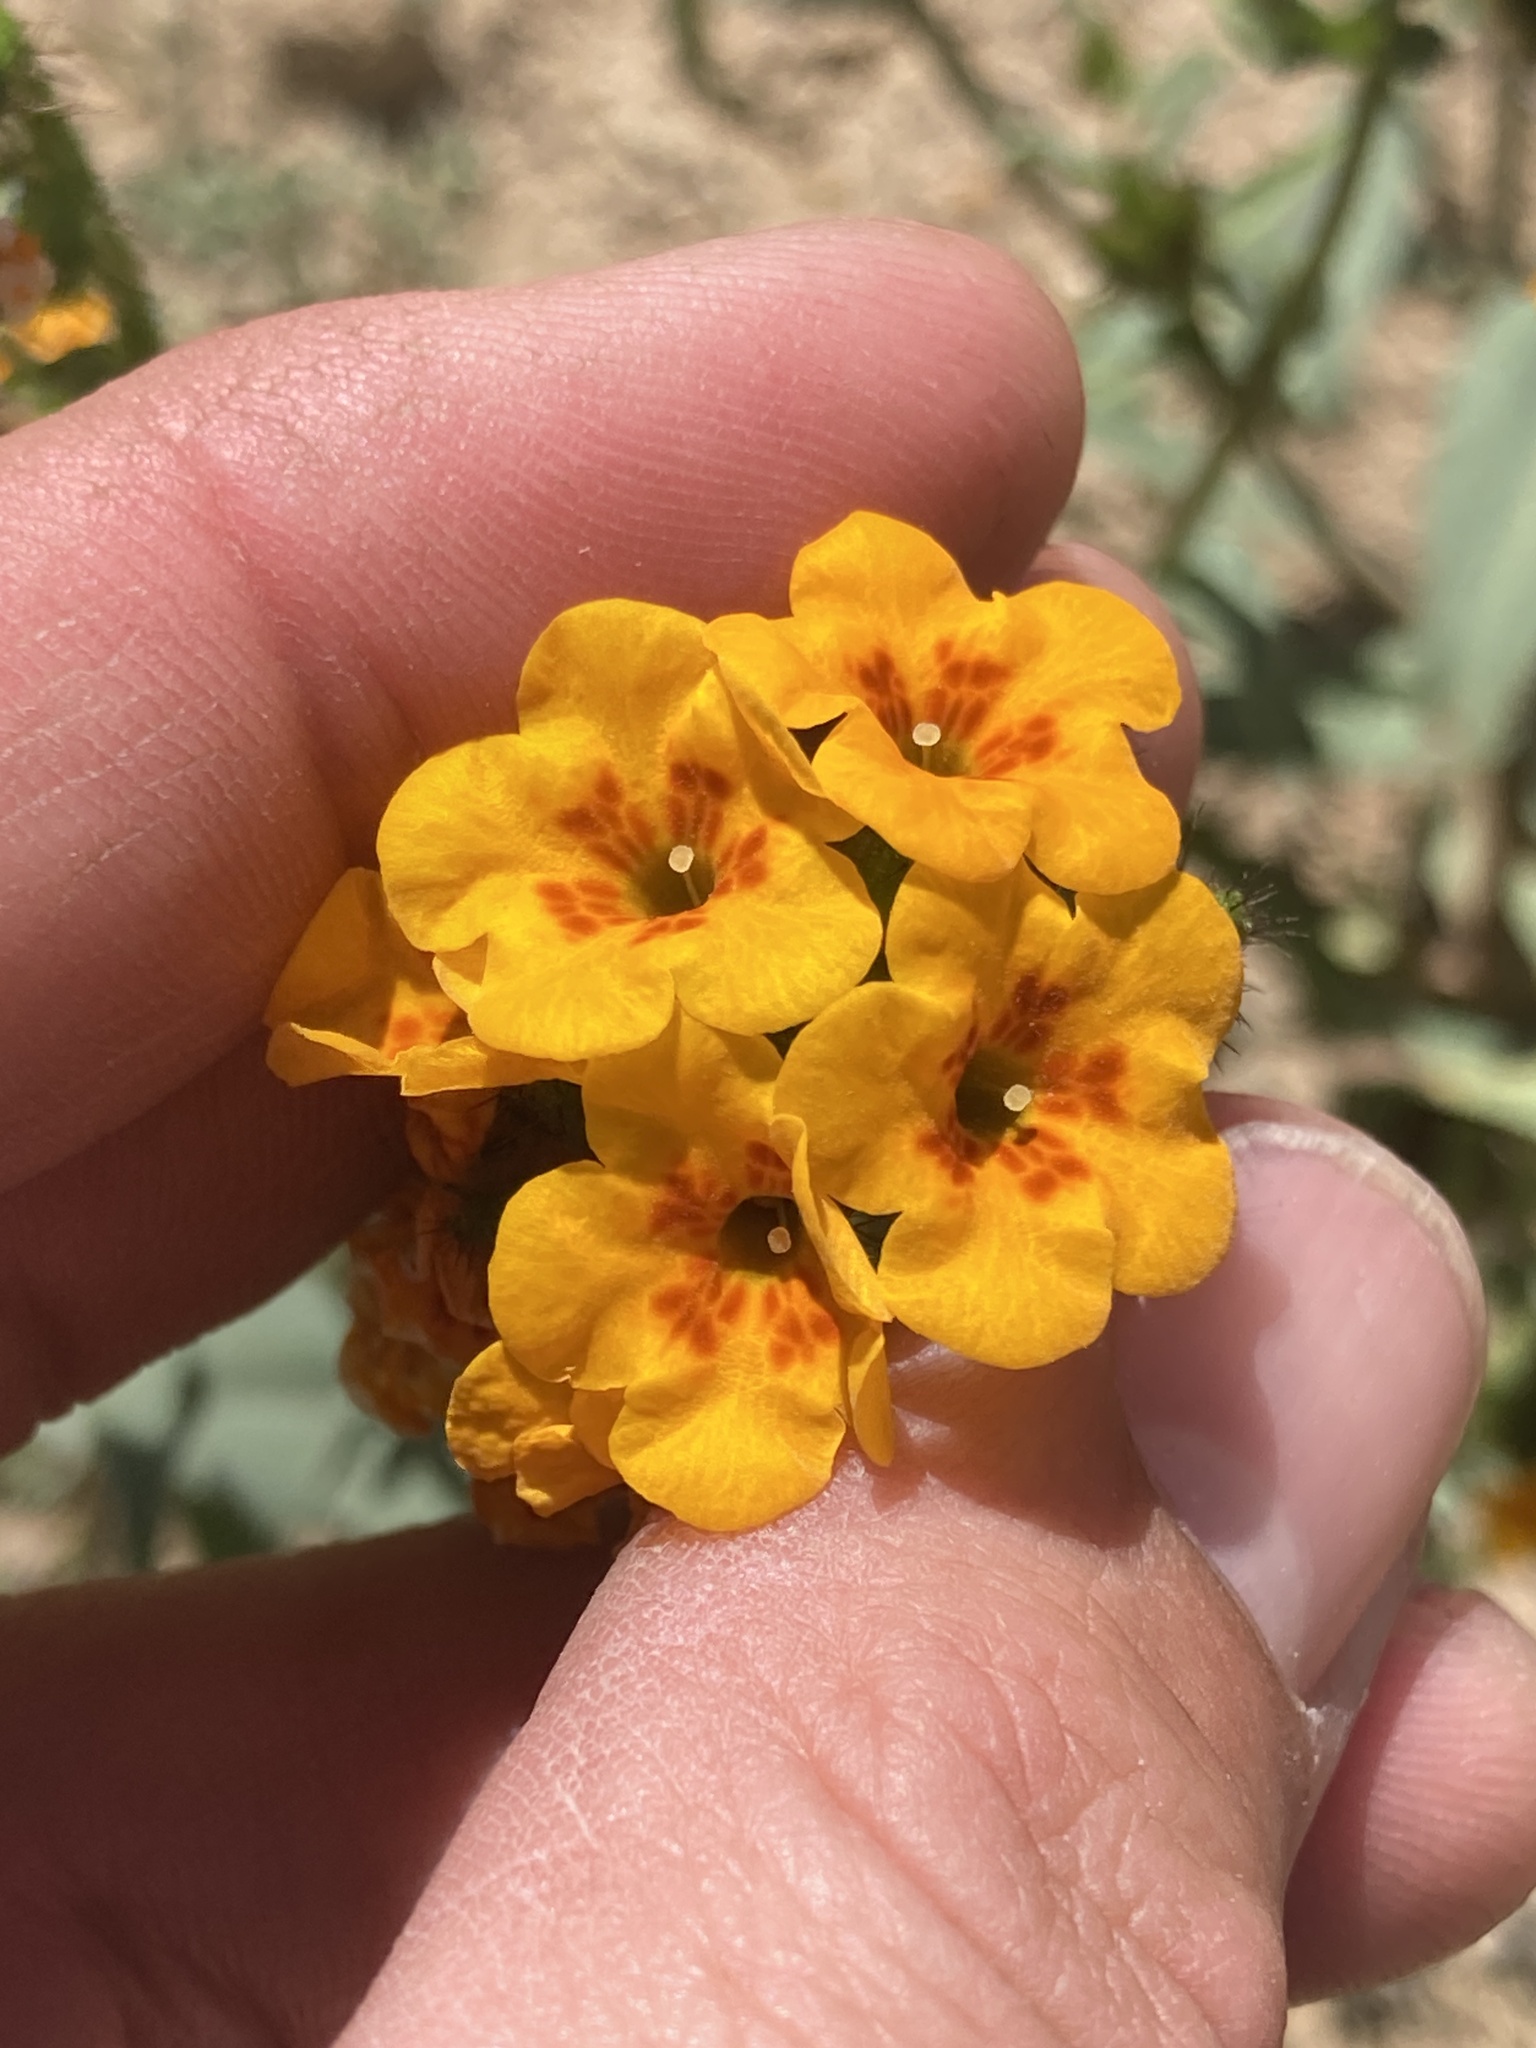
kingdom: Plantae
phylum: Tracheophyta
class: Magnoliopsida
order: Boraginales
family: Boraginaceae
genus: Amsinckia
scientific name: Amsinckia vernicosa
